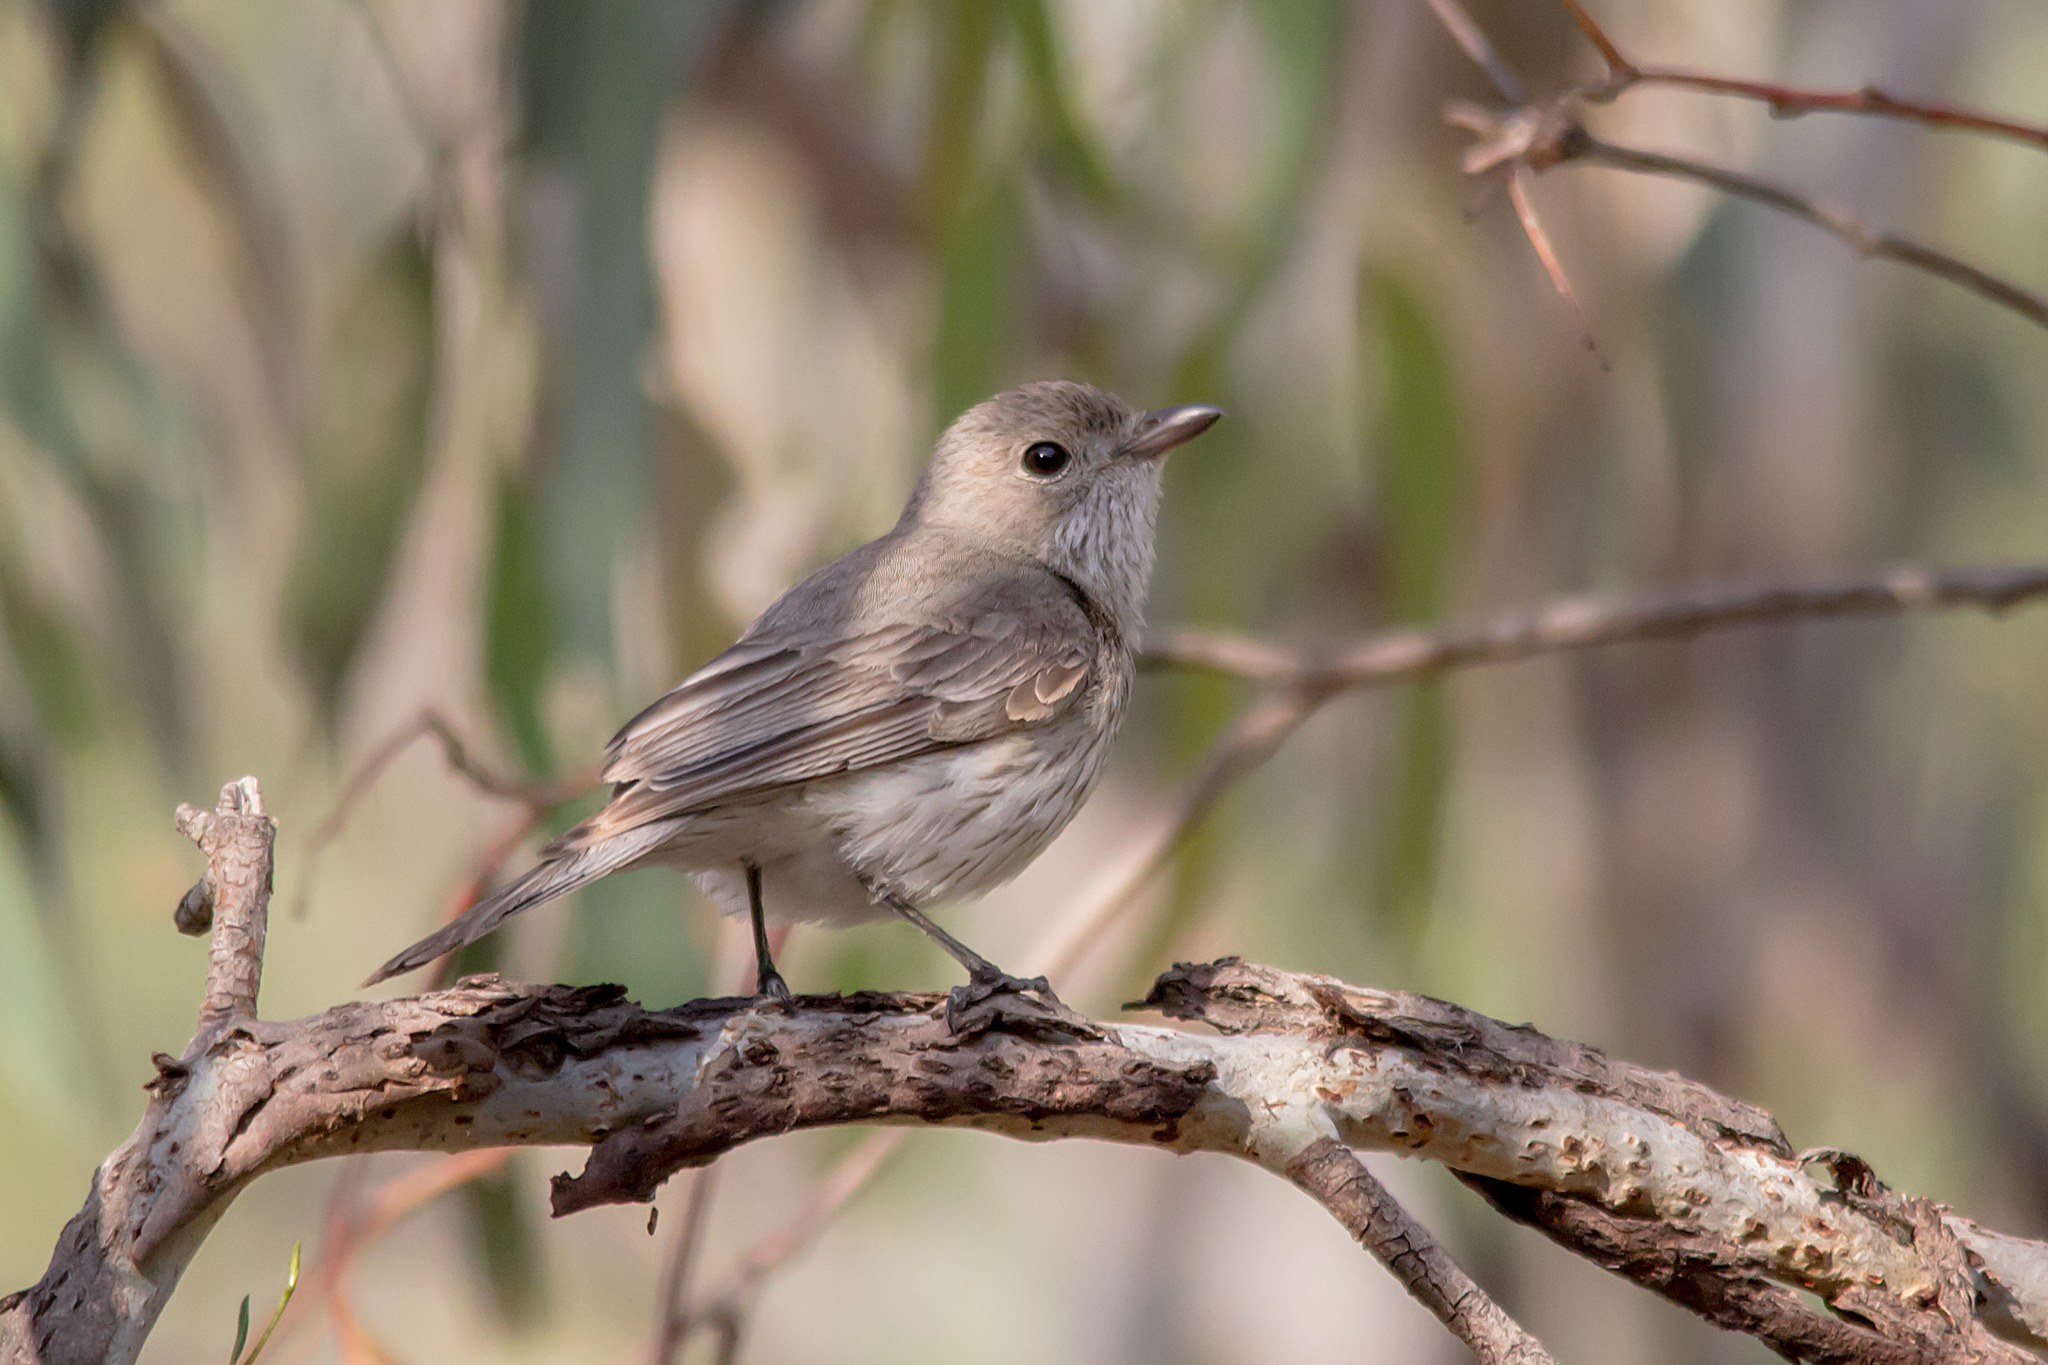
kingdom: Animalia
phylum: Chordata
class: Aves
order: Passeriformes
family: Pachycephalidae
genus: Pachycephala
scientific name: Pachycephala rufiventris
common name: Rufous whistler
